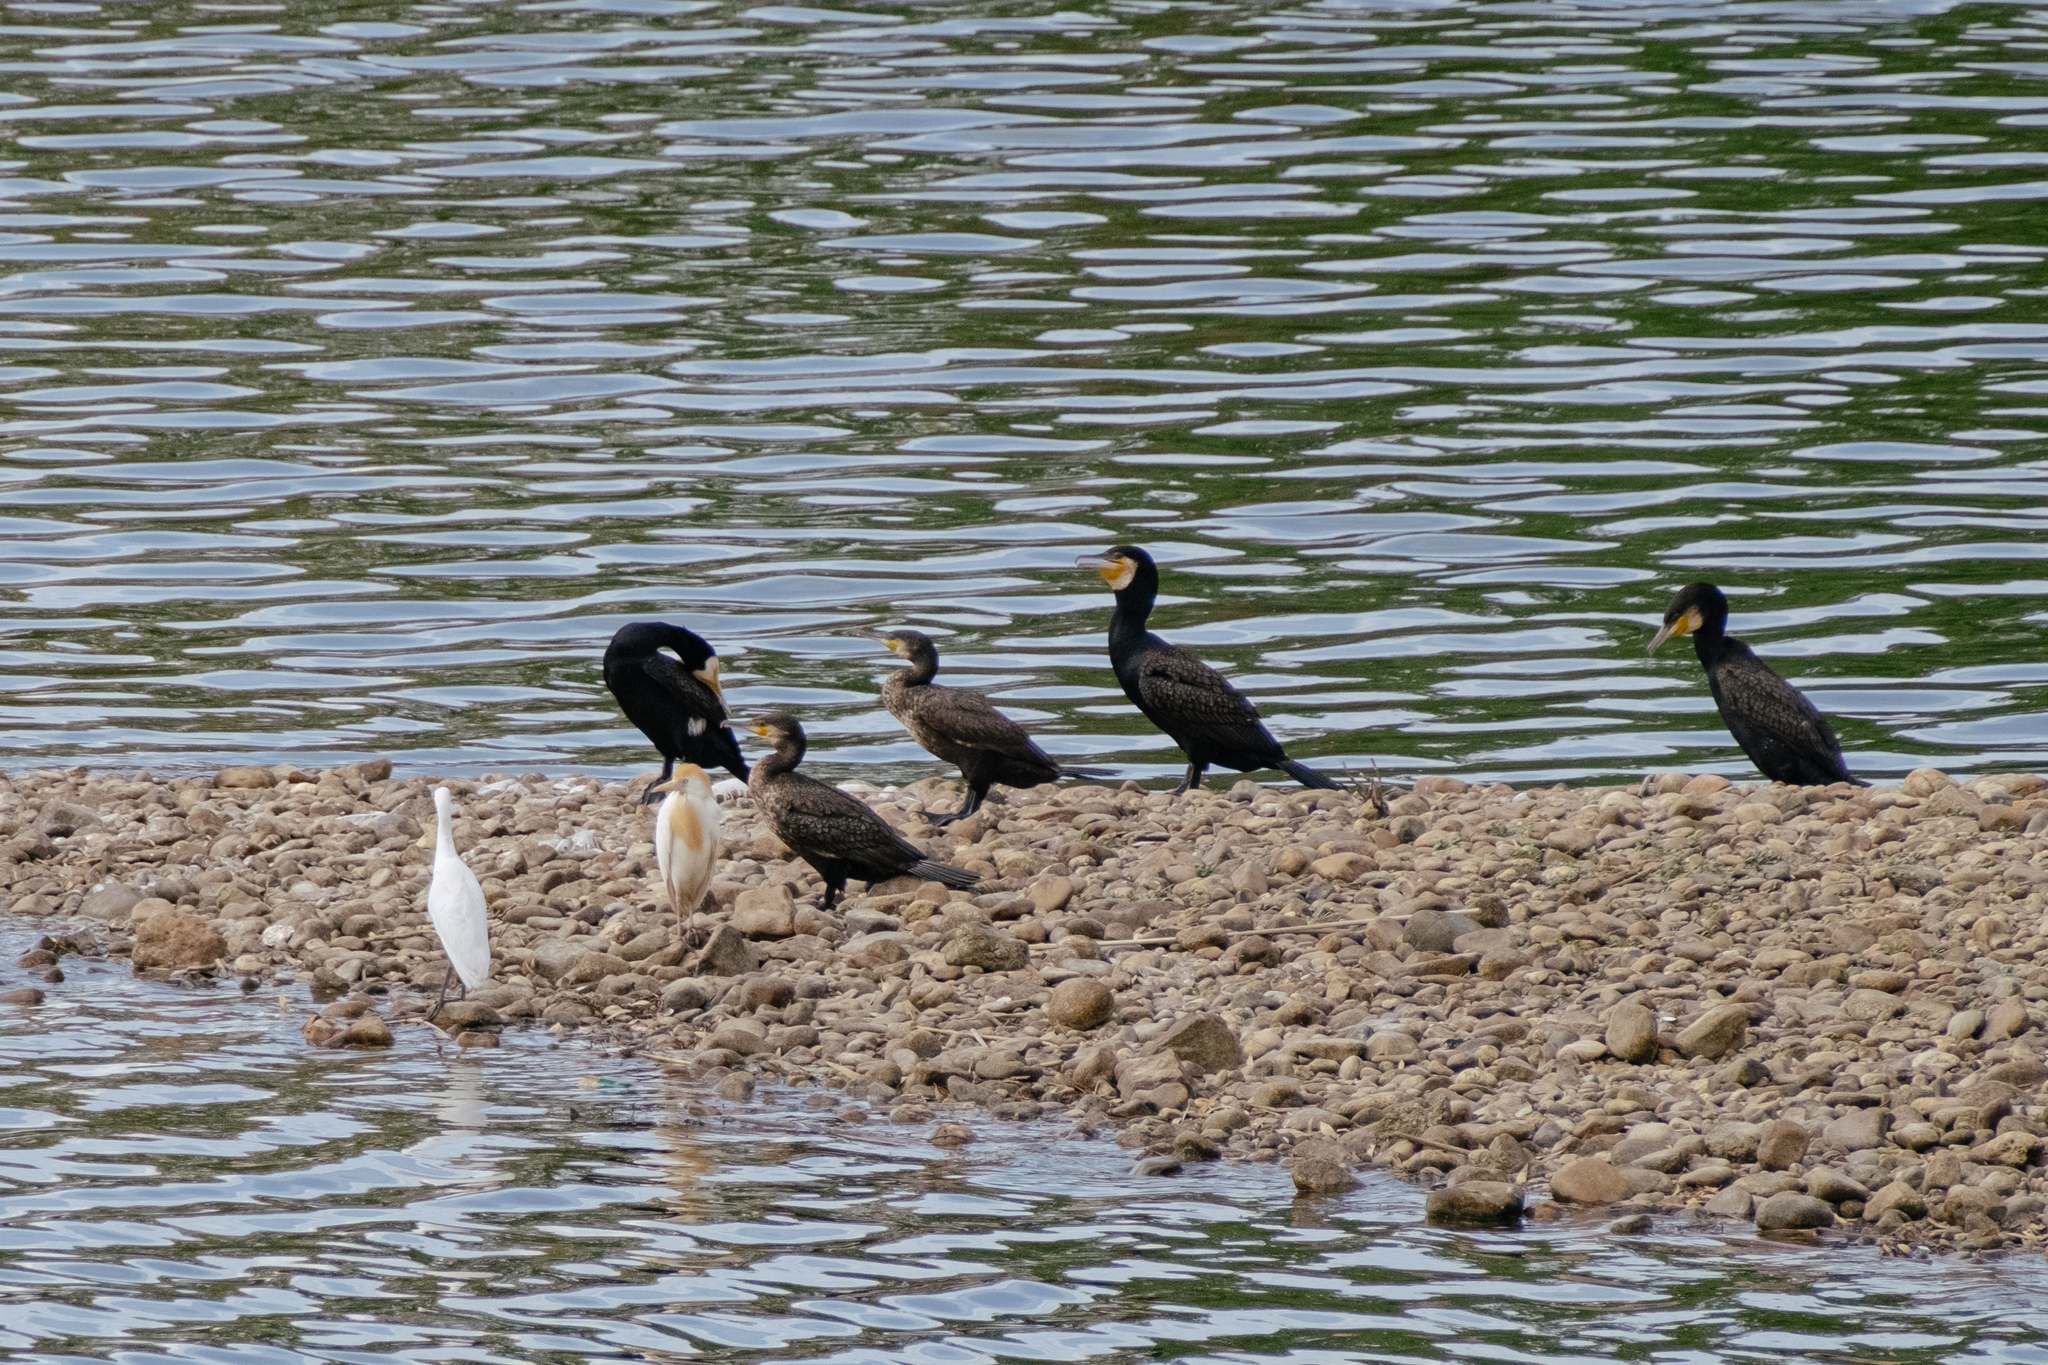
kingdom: Animalia
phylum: Chordata
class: Aves
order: Suliformes
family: Phalacrocoracidae
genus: Phalacrocorax
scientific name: Phalacrocorax carbo
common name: Great cormorant
